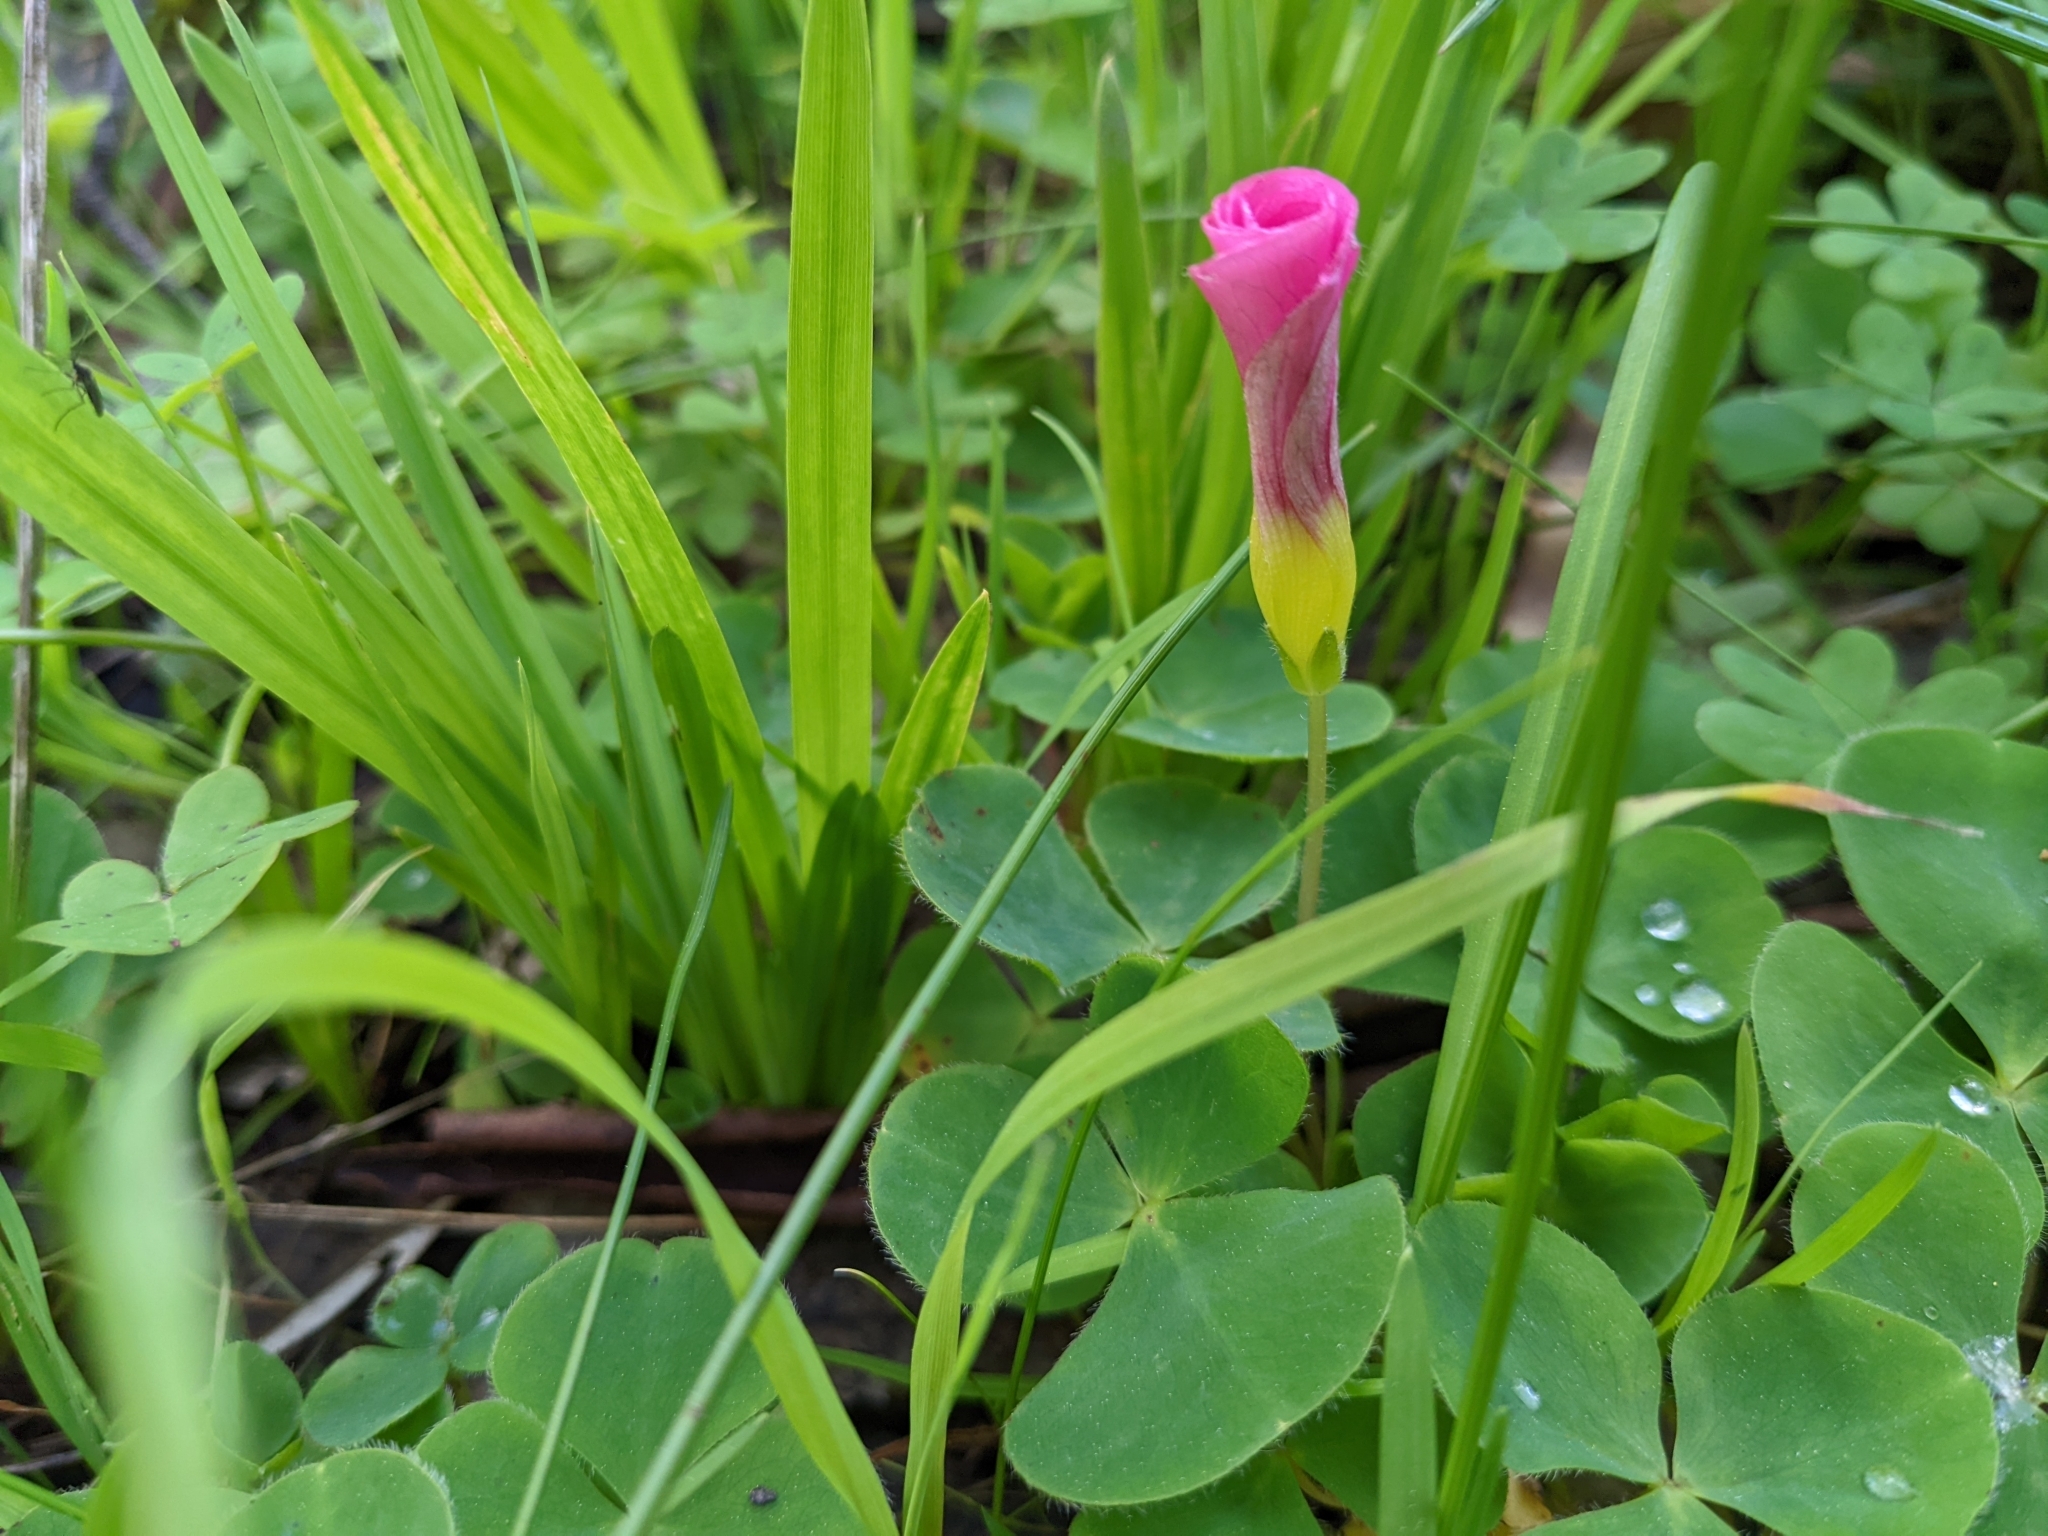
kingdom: Plantae
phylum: Tracheophyta
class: Magnoliopsida
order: Oxalidales
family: Oxalidaceae
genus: Oxalis
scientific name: Oxalis purpurea
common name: Purple woodsorrel
